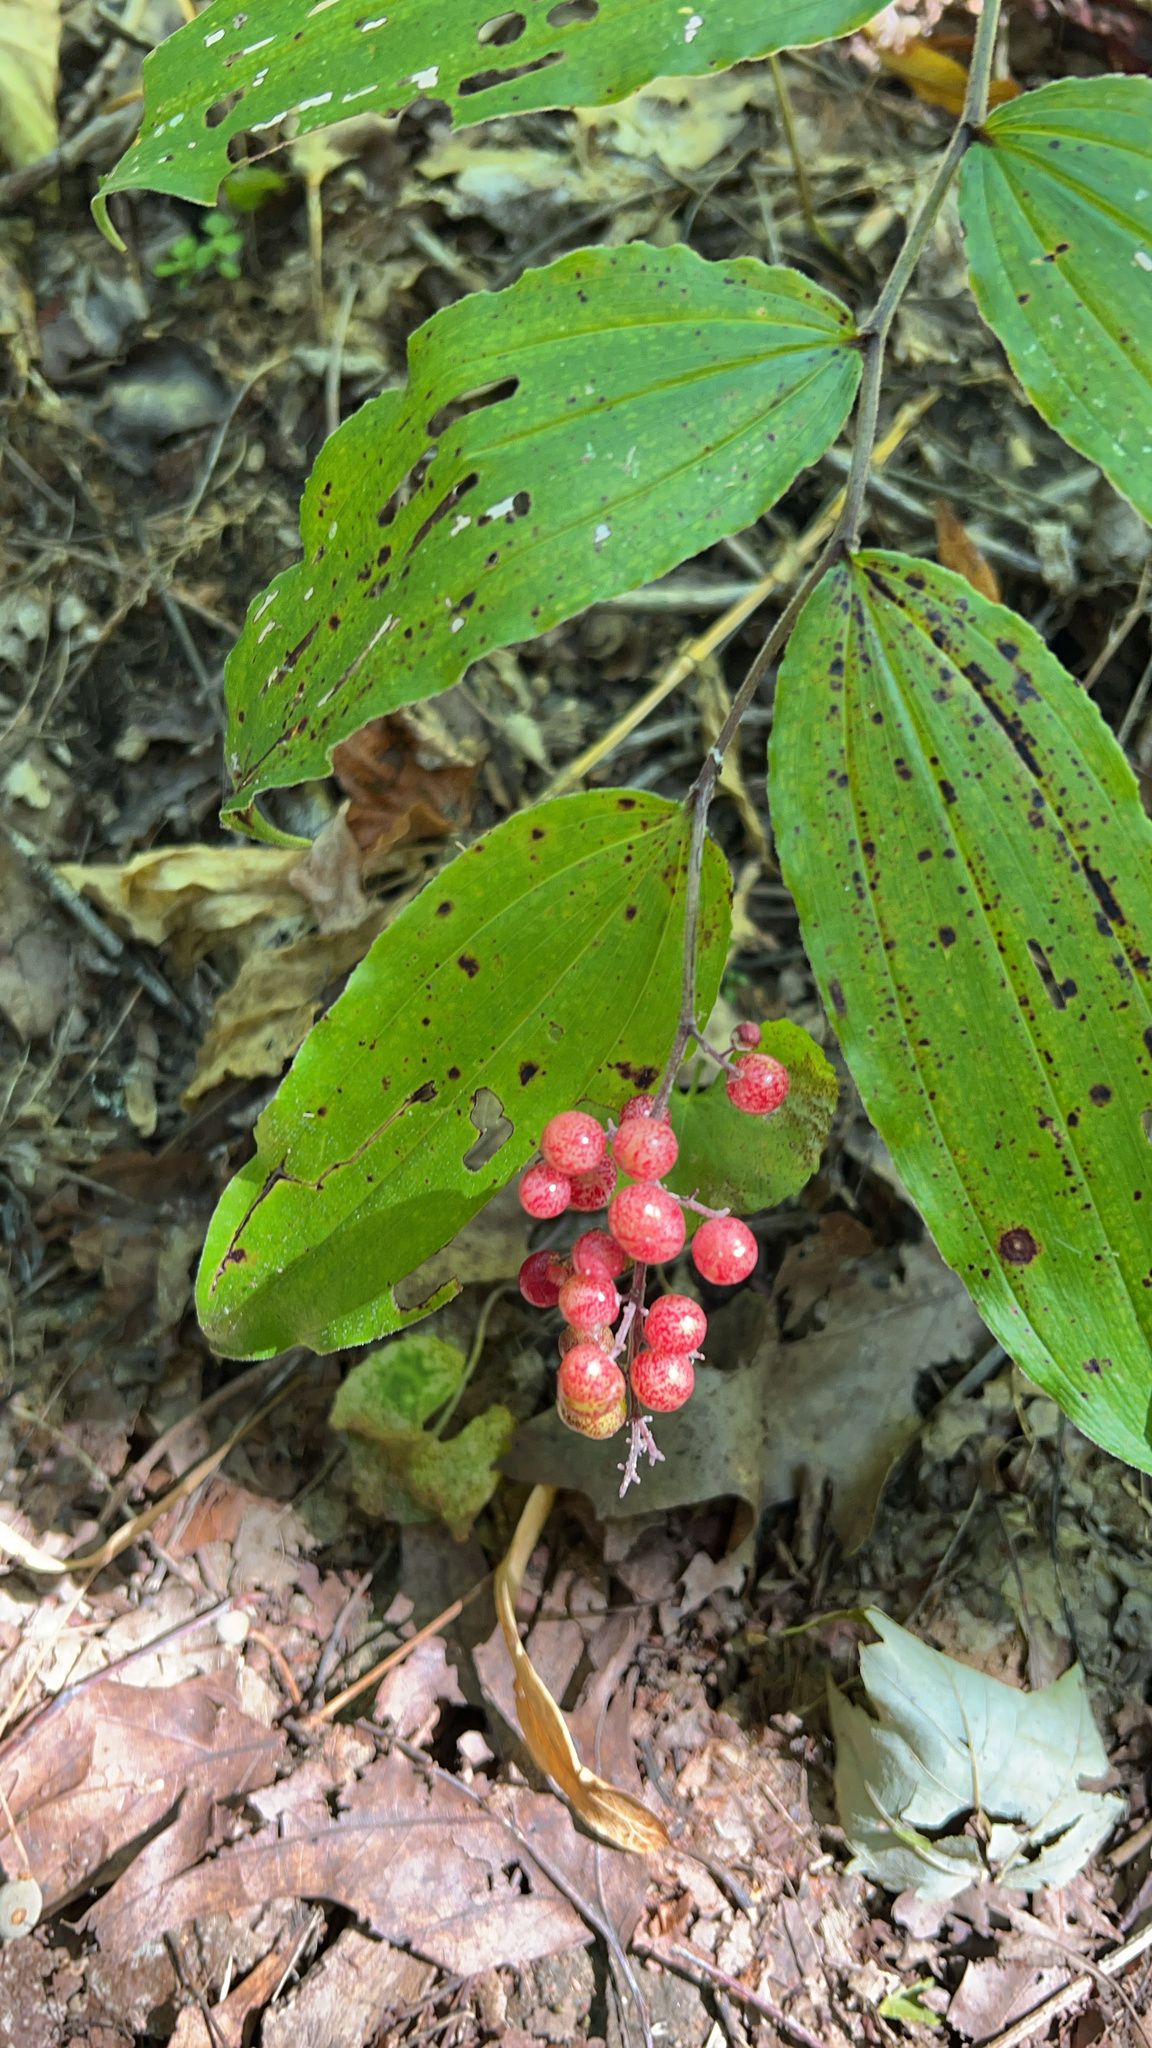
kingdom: Plantae
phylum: Tracheophyta
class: Liliopsida
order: Asparagales
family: Asparagaceae
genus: Maianthemum
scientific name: Maianthemum racemosum
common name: False spikenard
